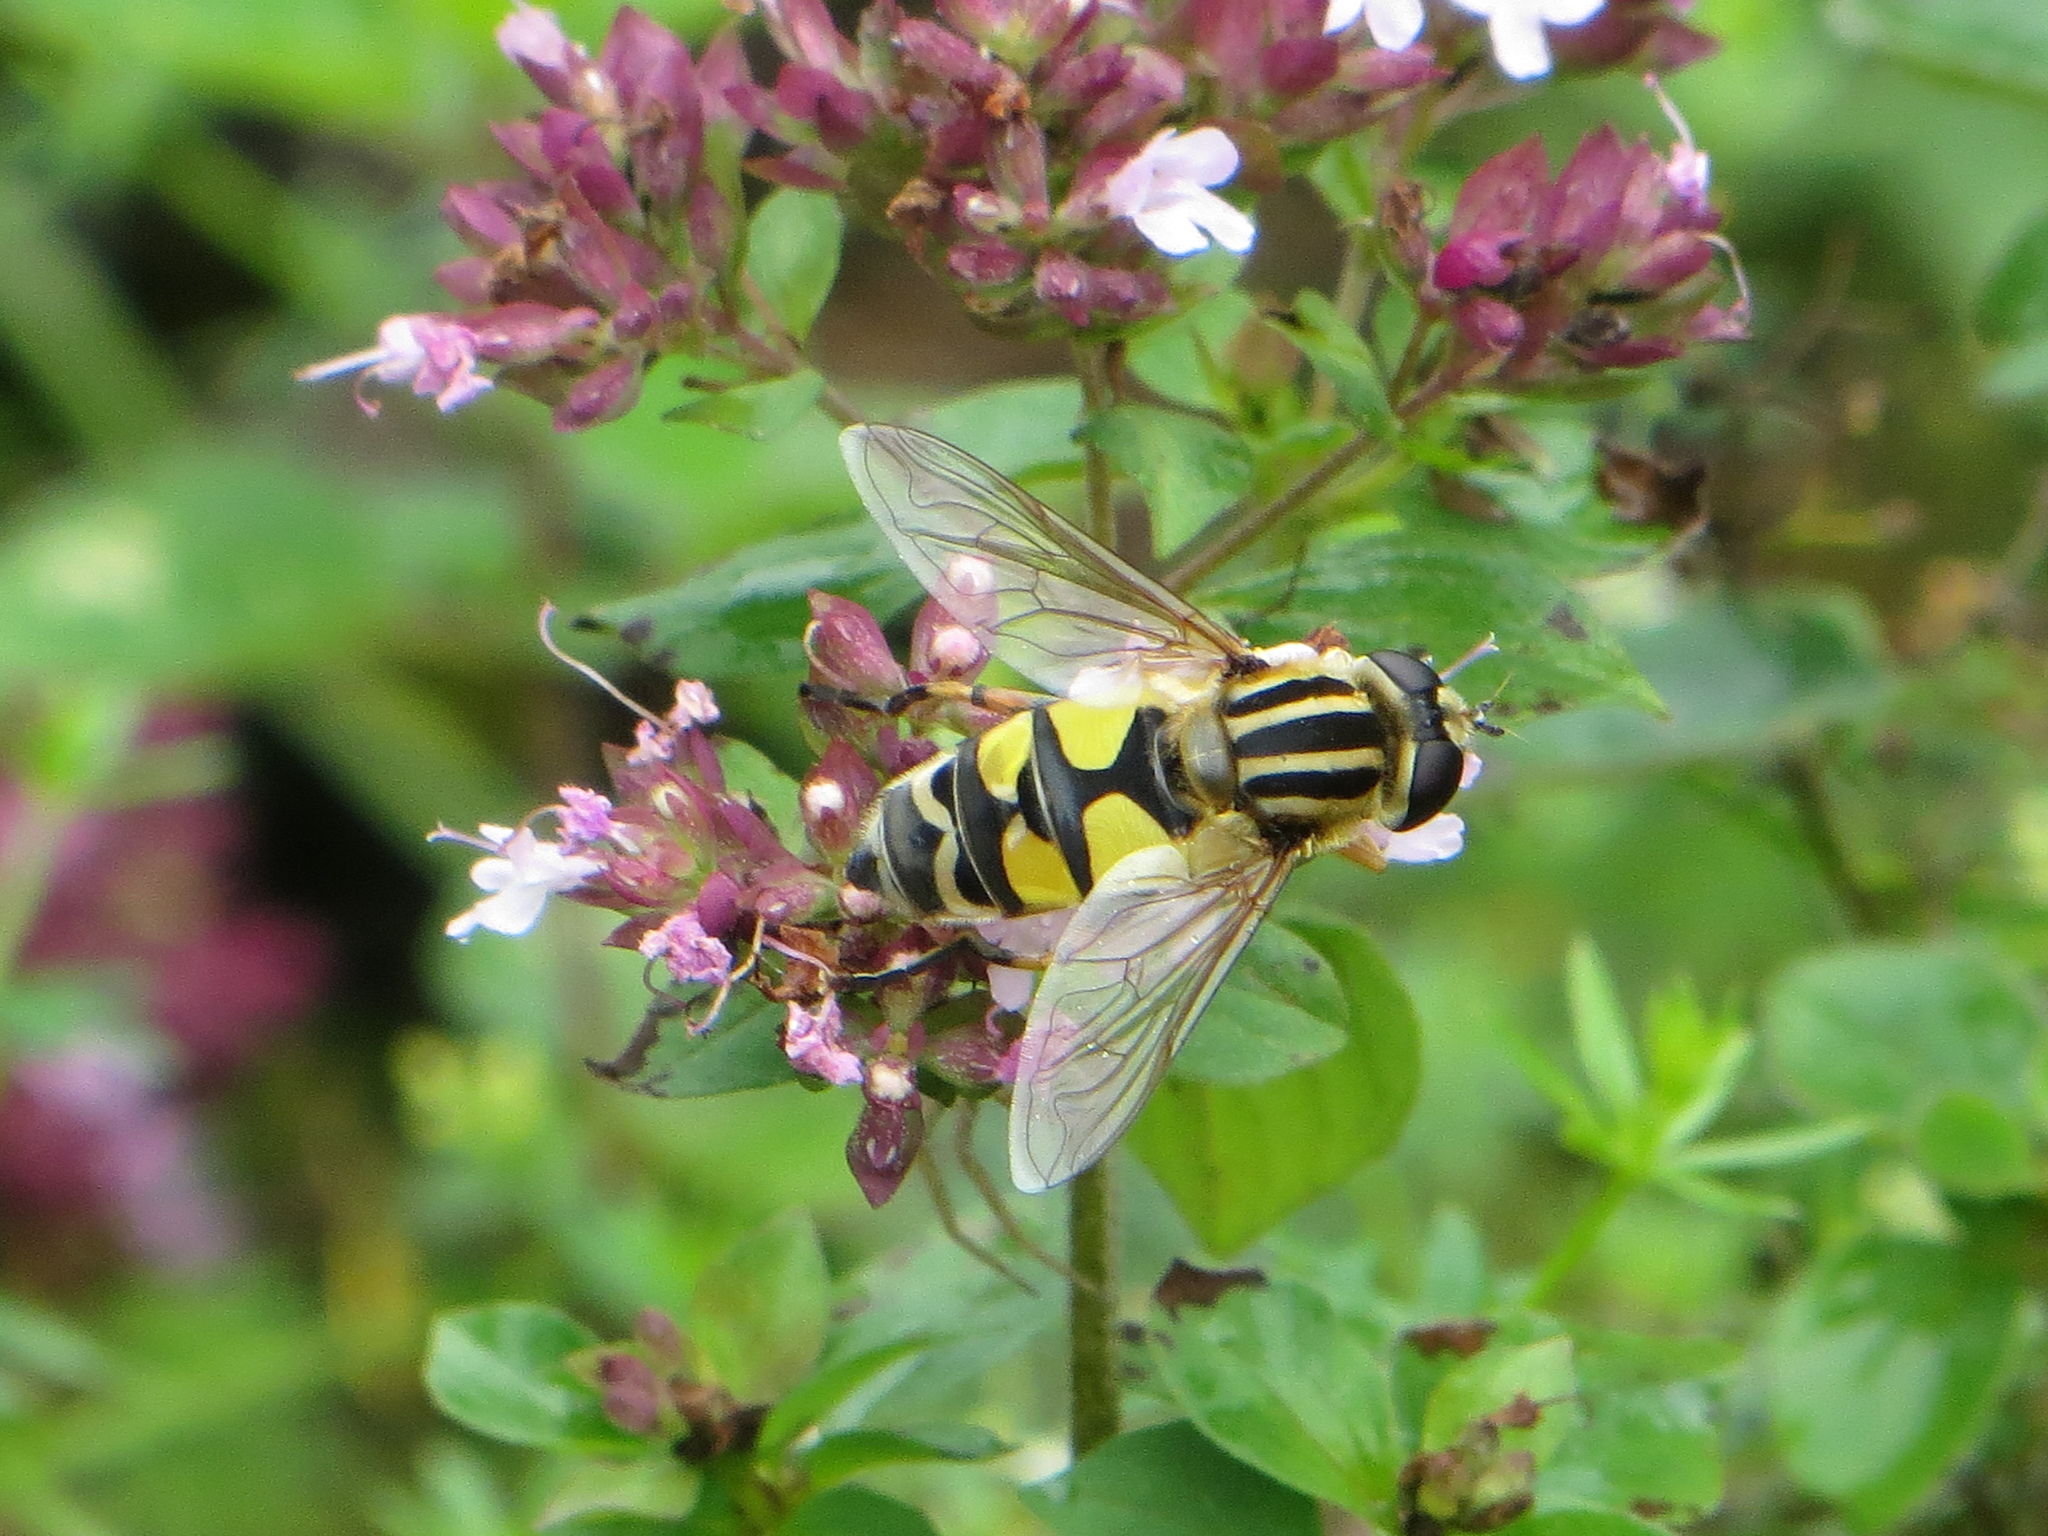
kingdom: Animalia
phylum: Arthropoda
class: Insecta
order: Diptera
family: Syrphidae
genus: Helophilus
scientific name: Helophilus trivittatus
